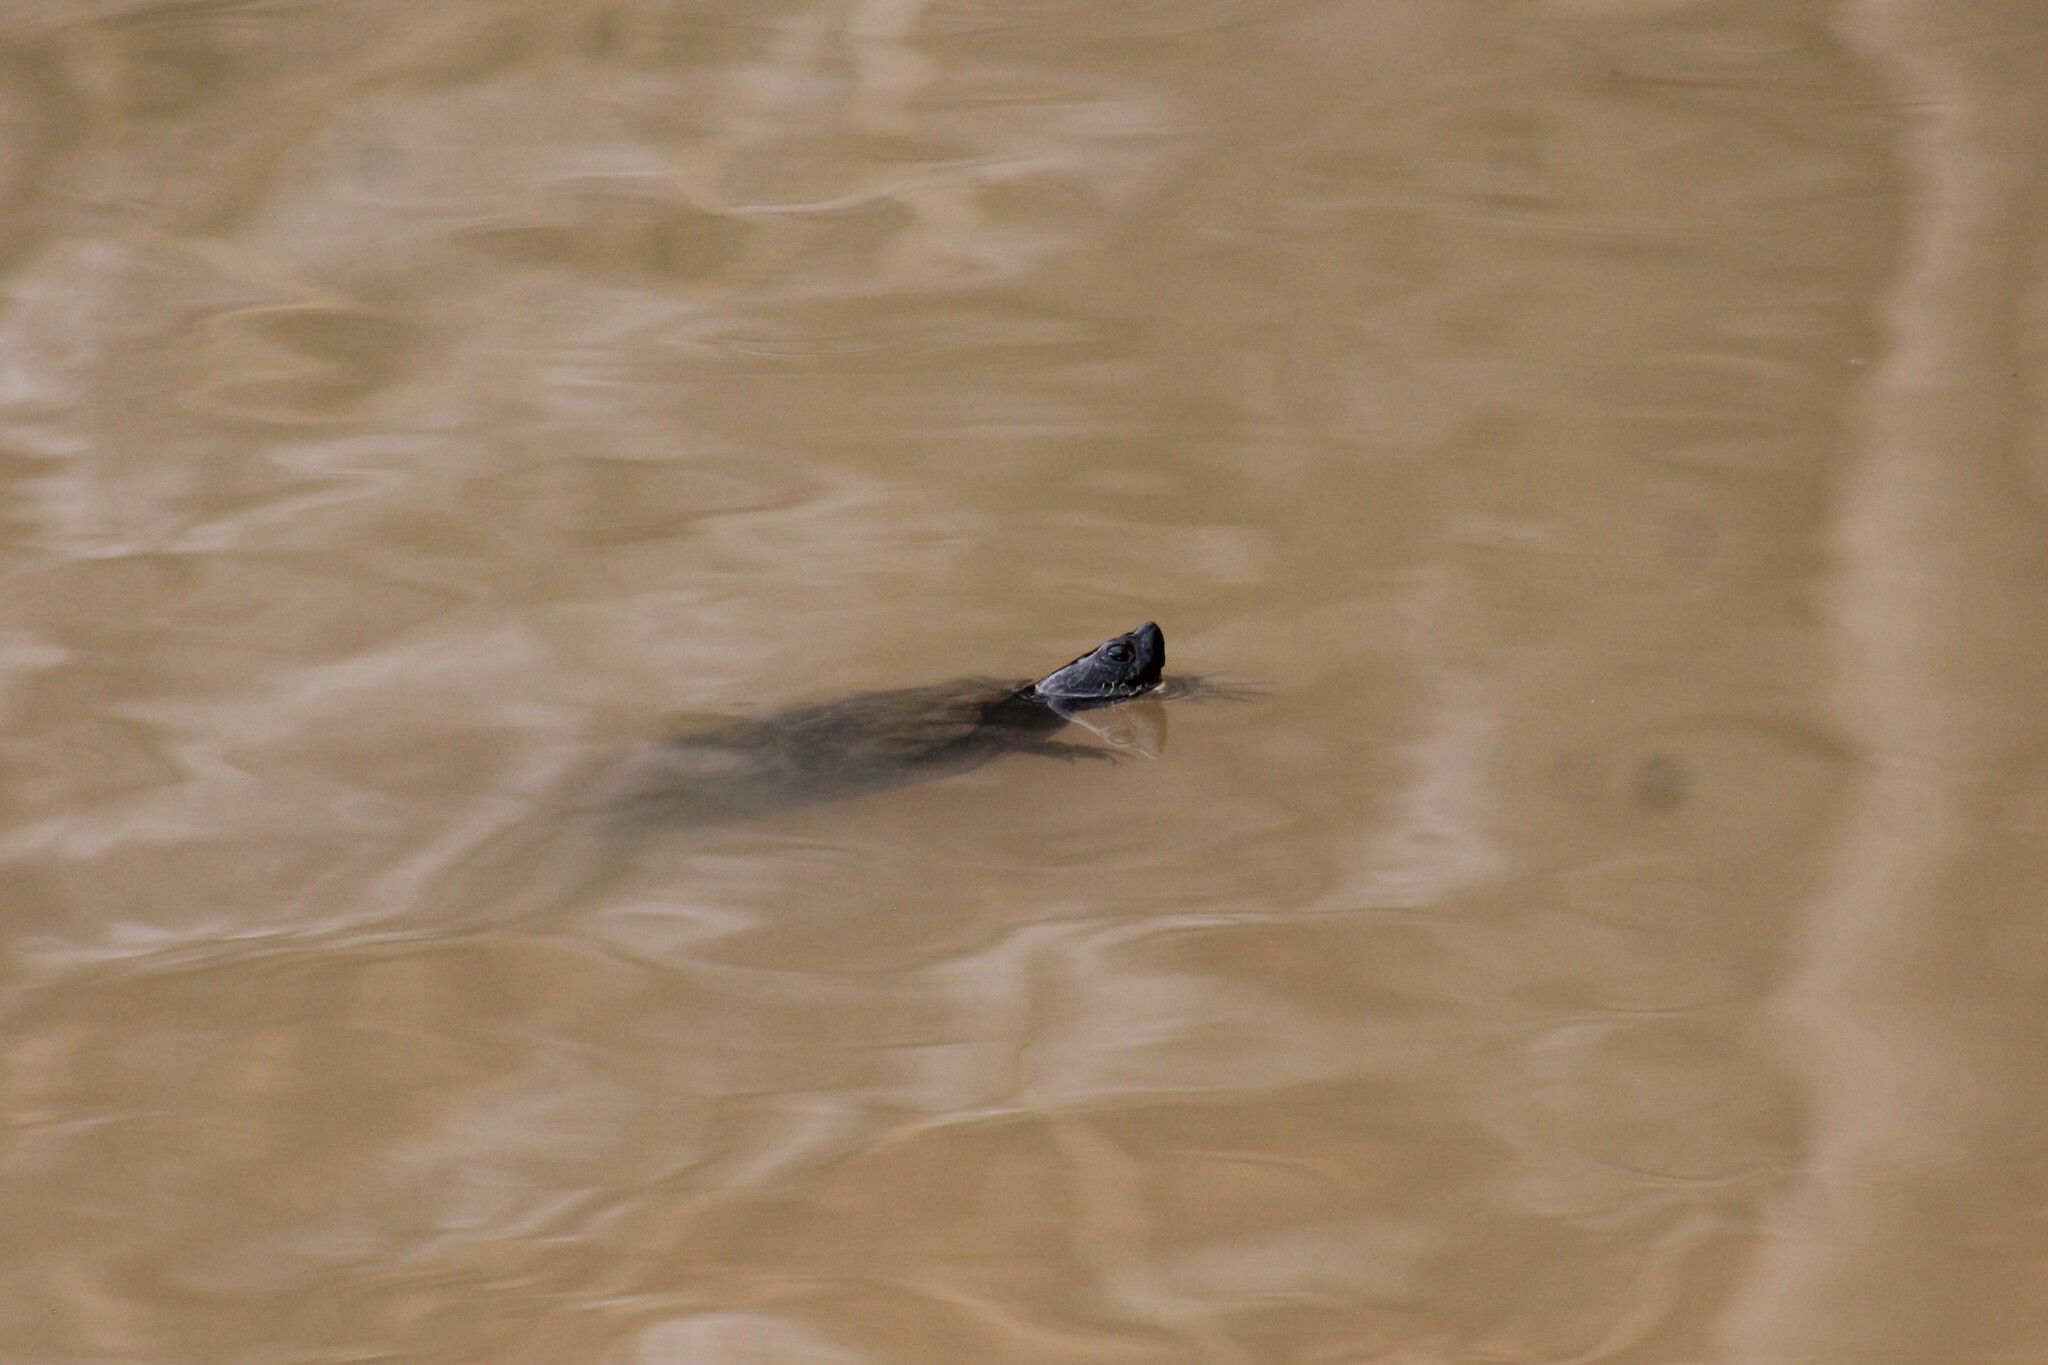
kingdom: Animalia
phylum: Chordata
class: Testudines
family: Emydidae
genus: Trachemys
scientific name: Trachemys scripta
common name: Slider
